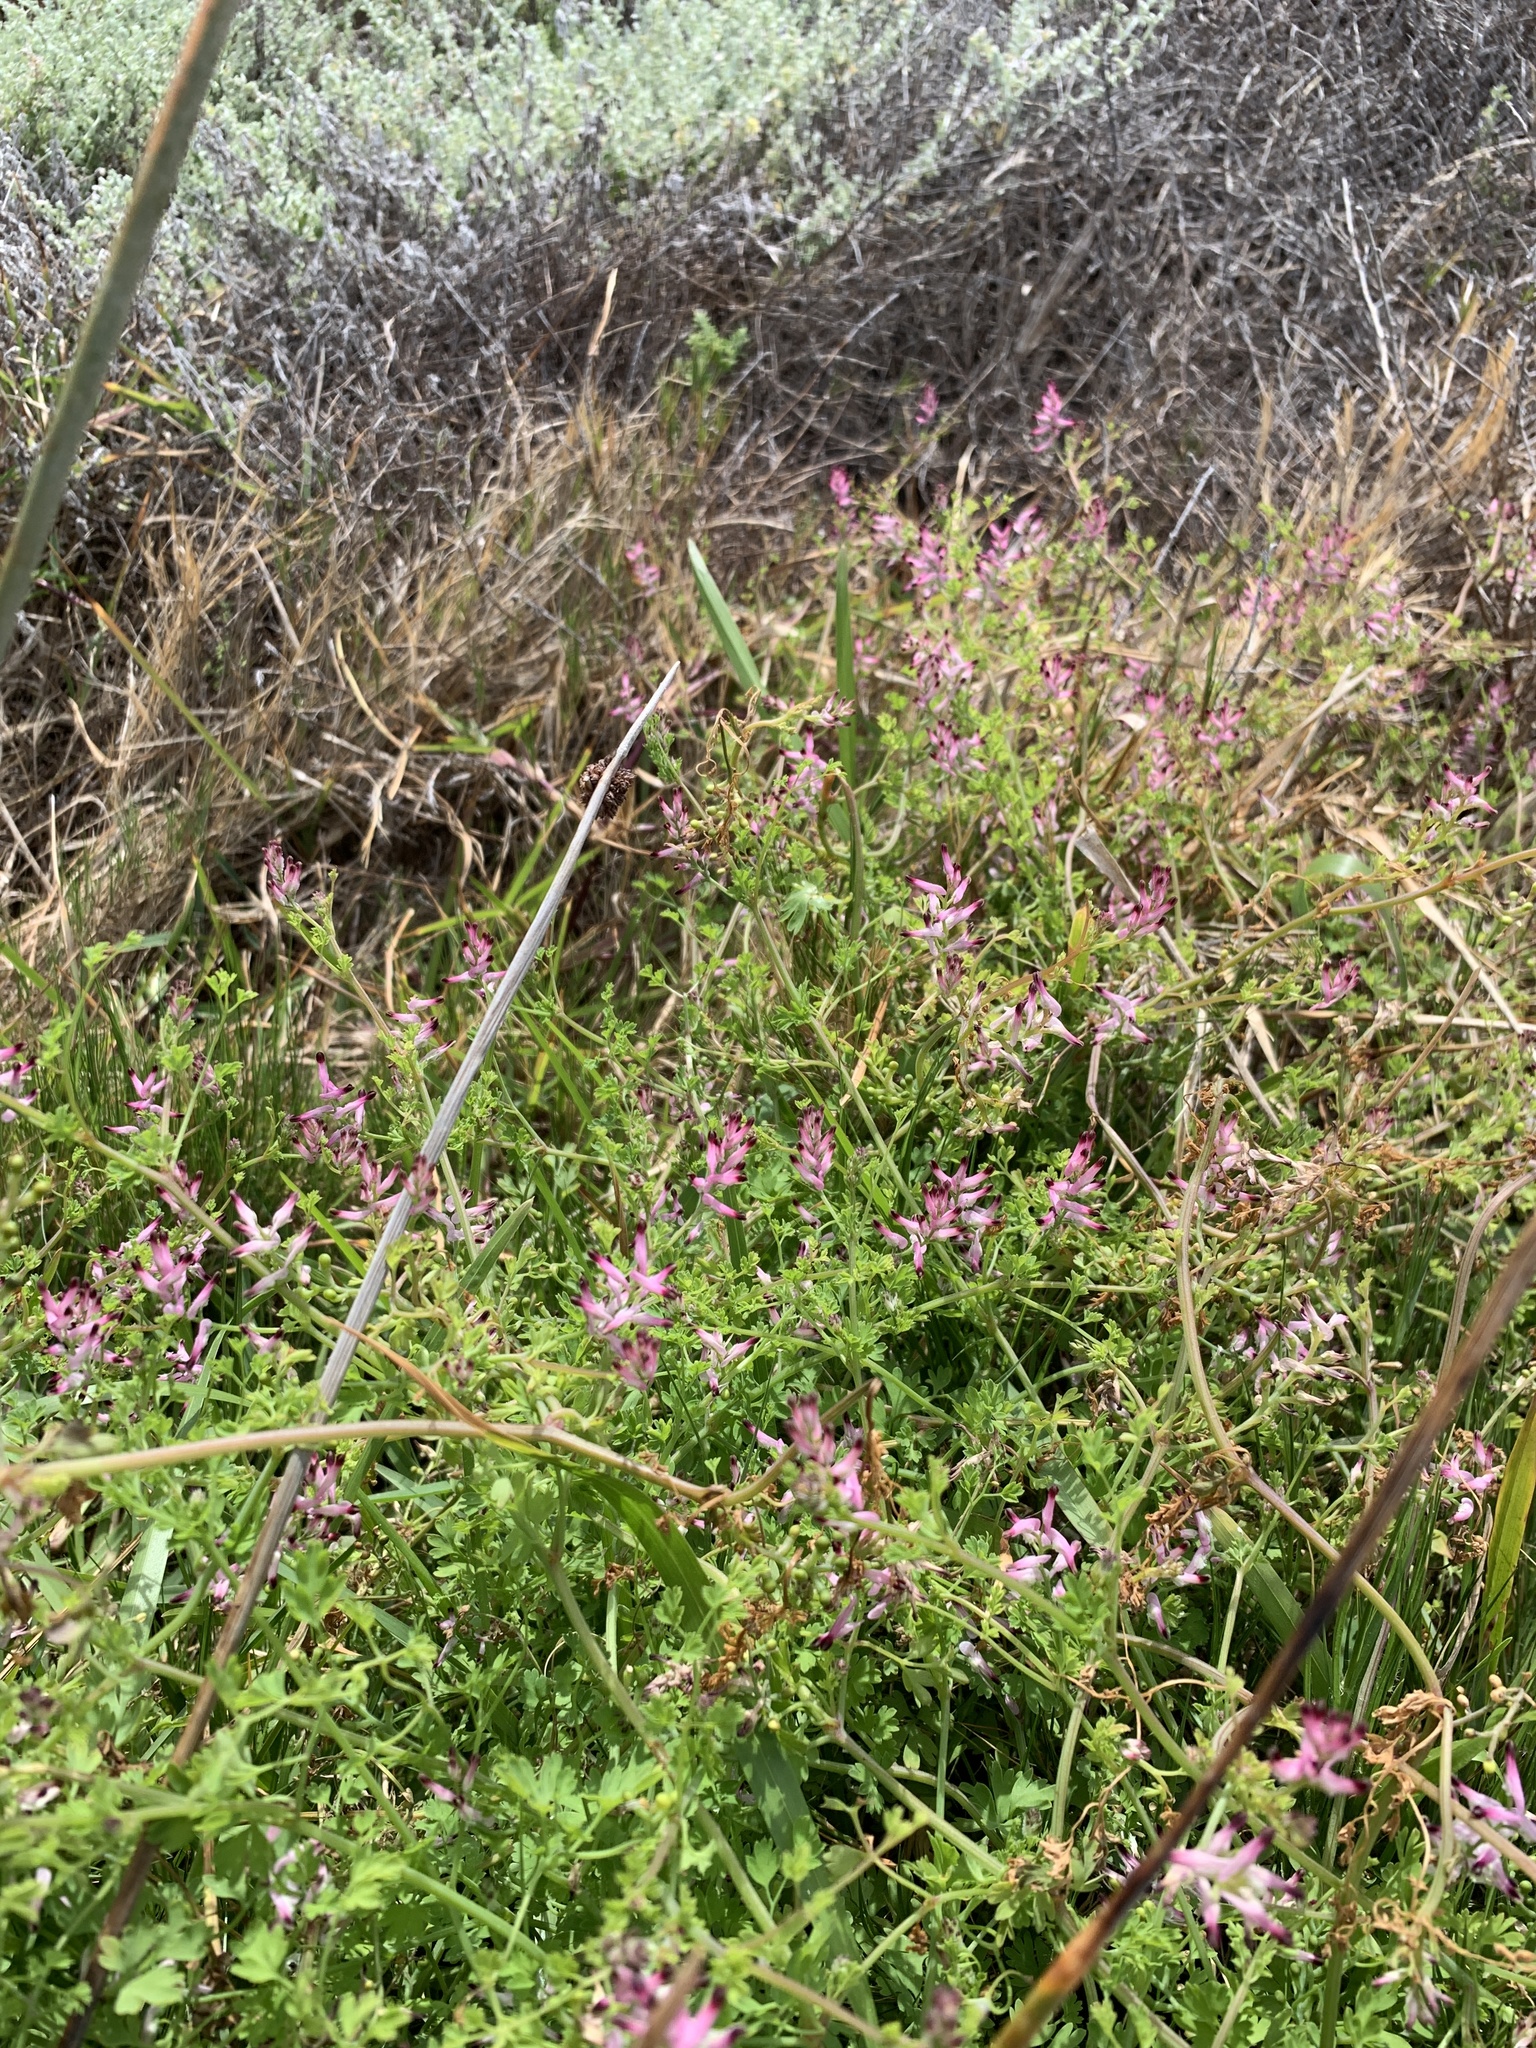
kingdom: Plantae
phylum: Tracheophyta
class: Magnoliopsida
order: Ranunculales
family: Papaveraceae
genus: Fumaria
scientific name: Fumaria muralis
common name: Common ramping-fumitory
